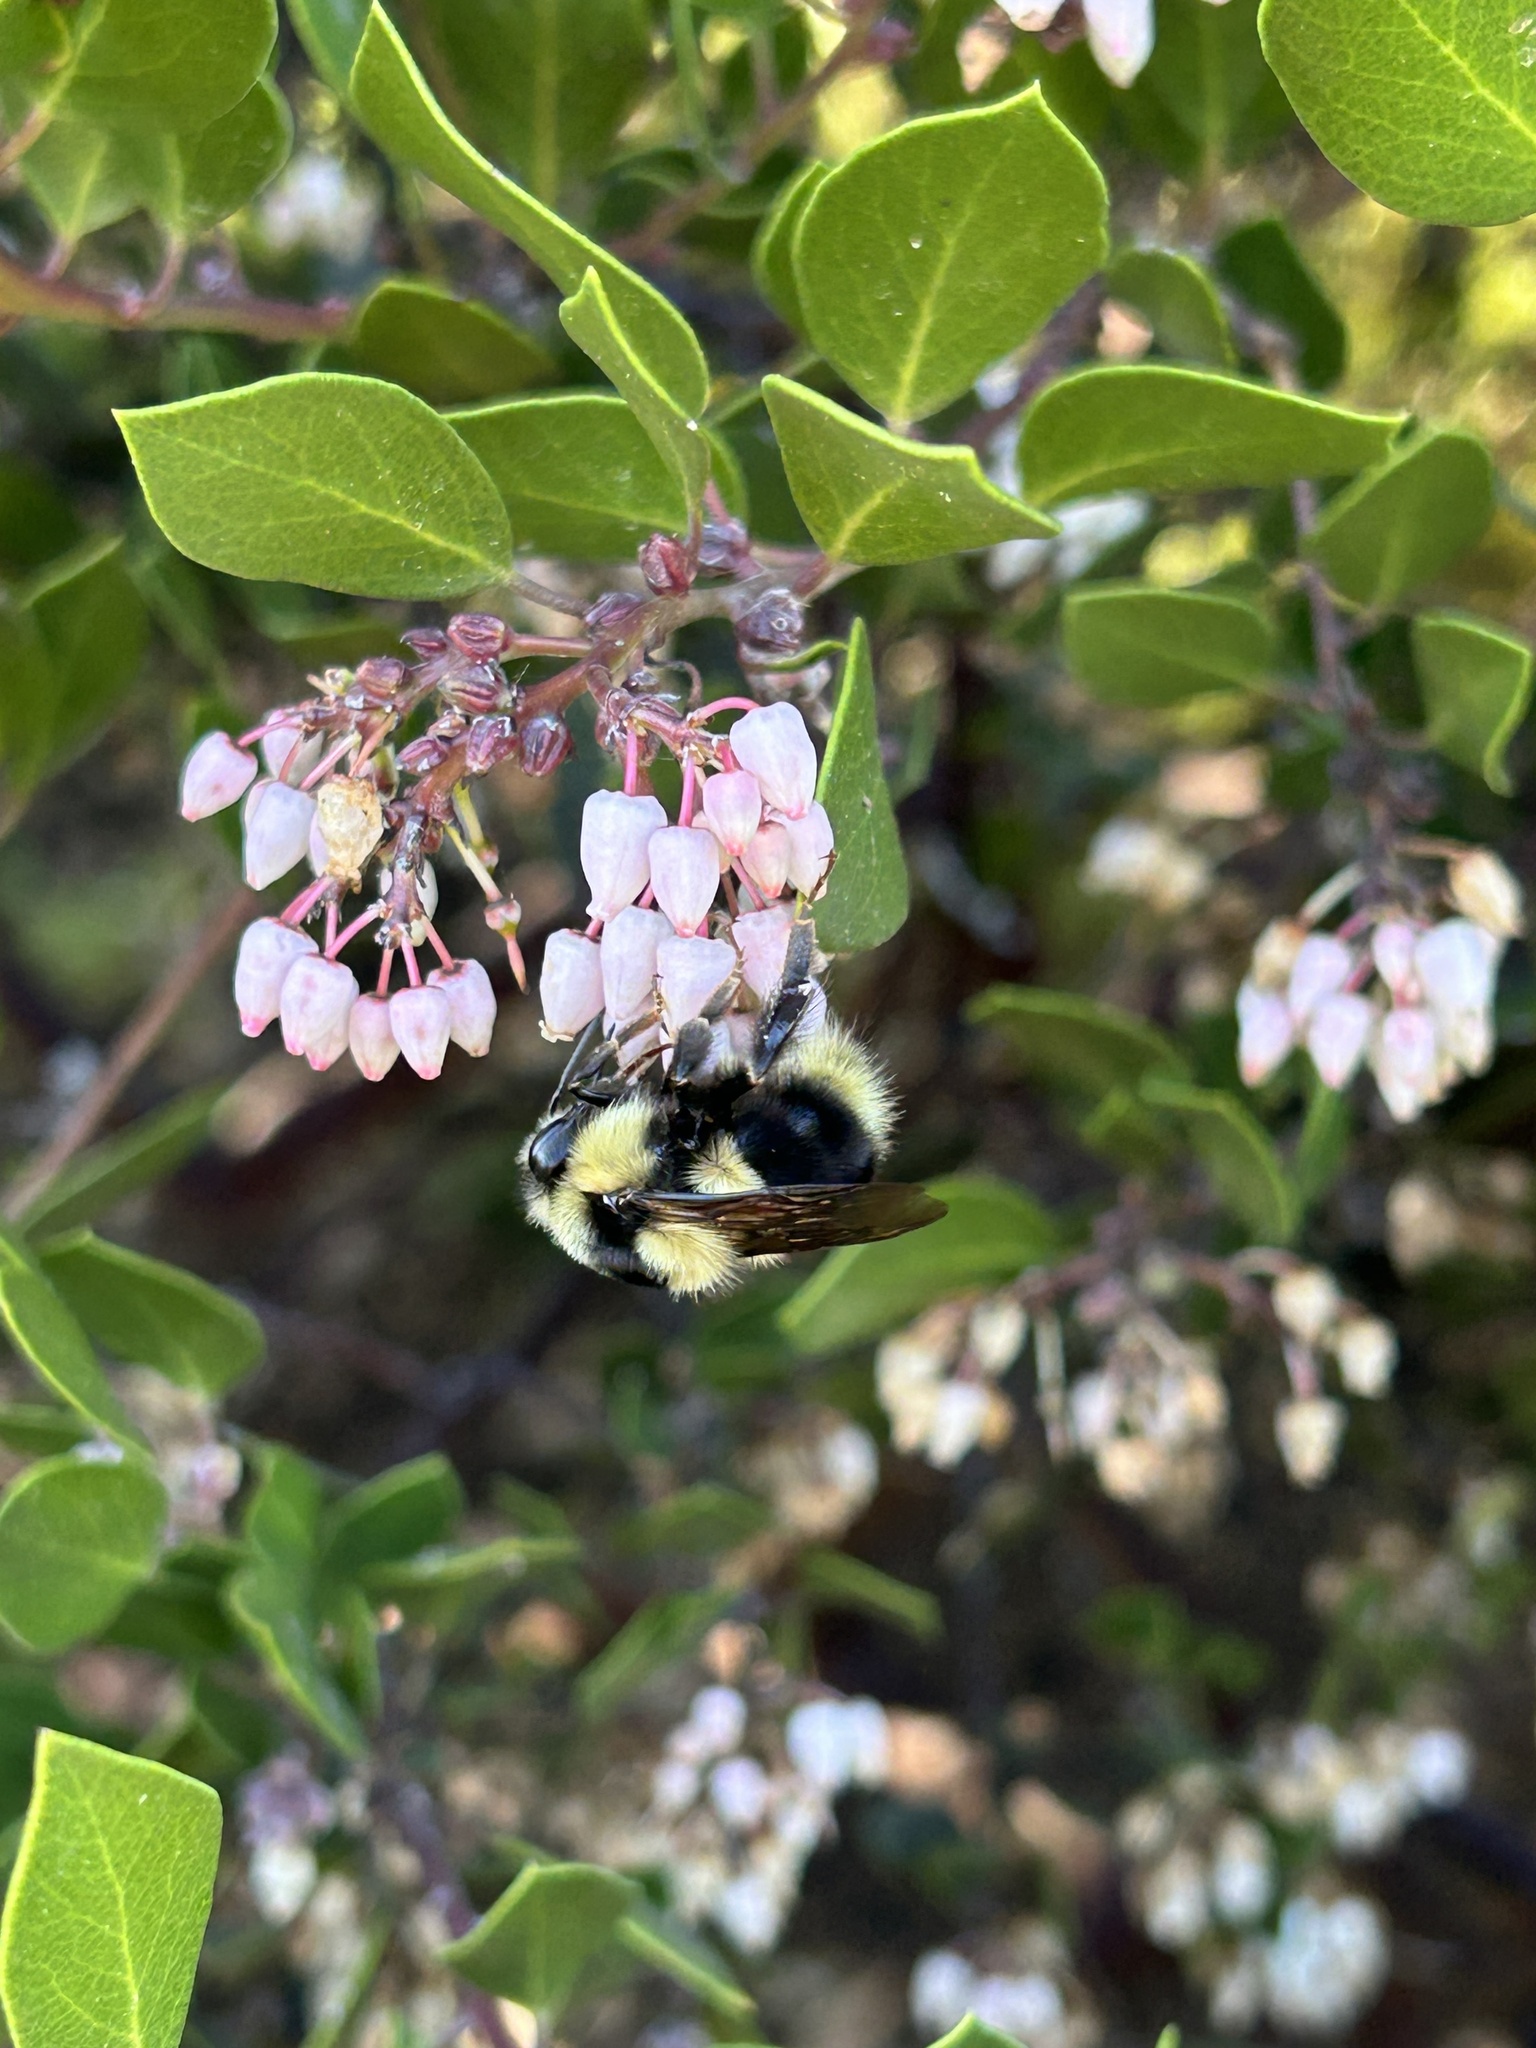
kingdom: Animalia
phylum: Arthropoda
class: Insecta
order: Hymenoptera
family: Apidae
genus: Bombus
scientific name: Bombus melanopygus
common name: Black tail bumble bee
